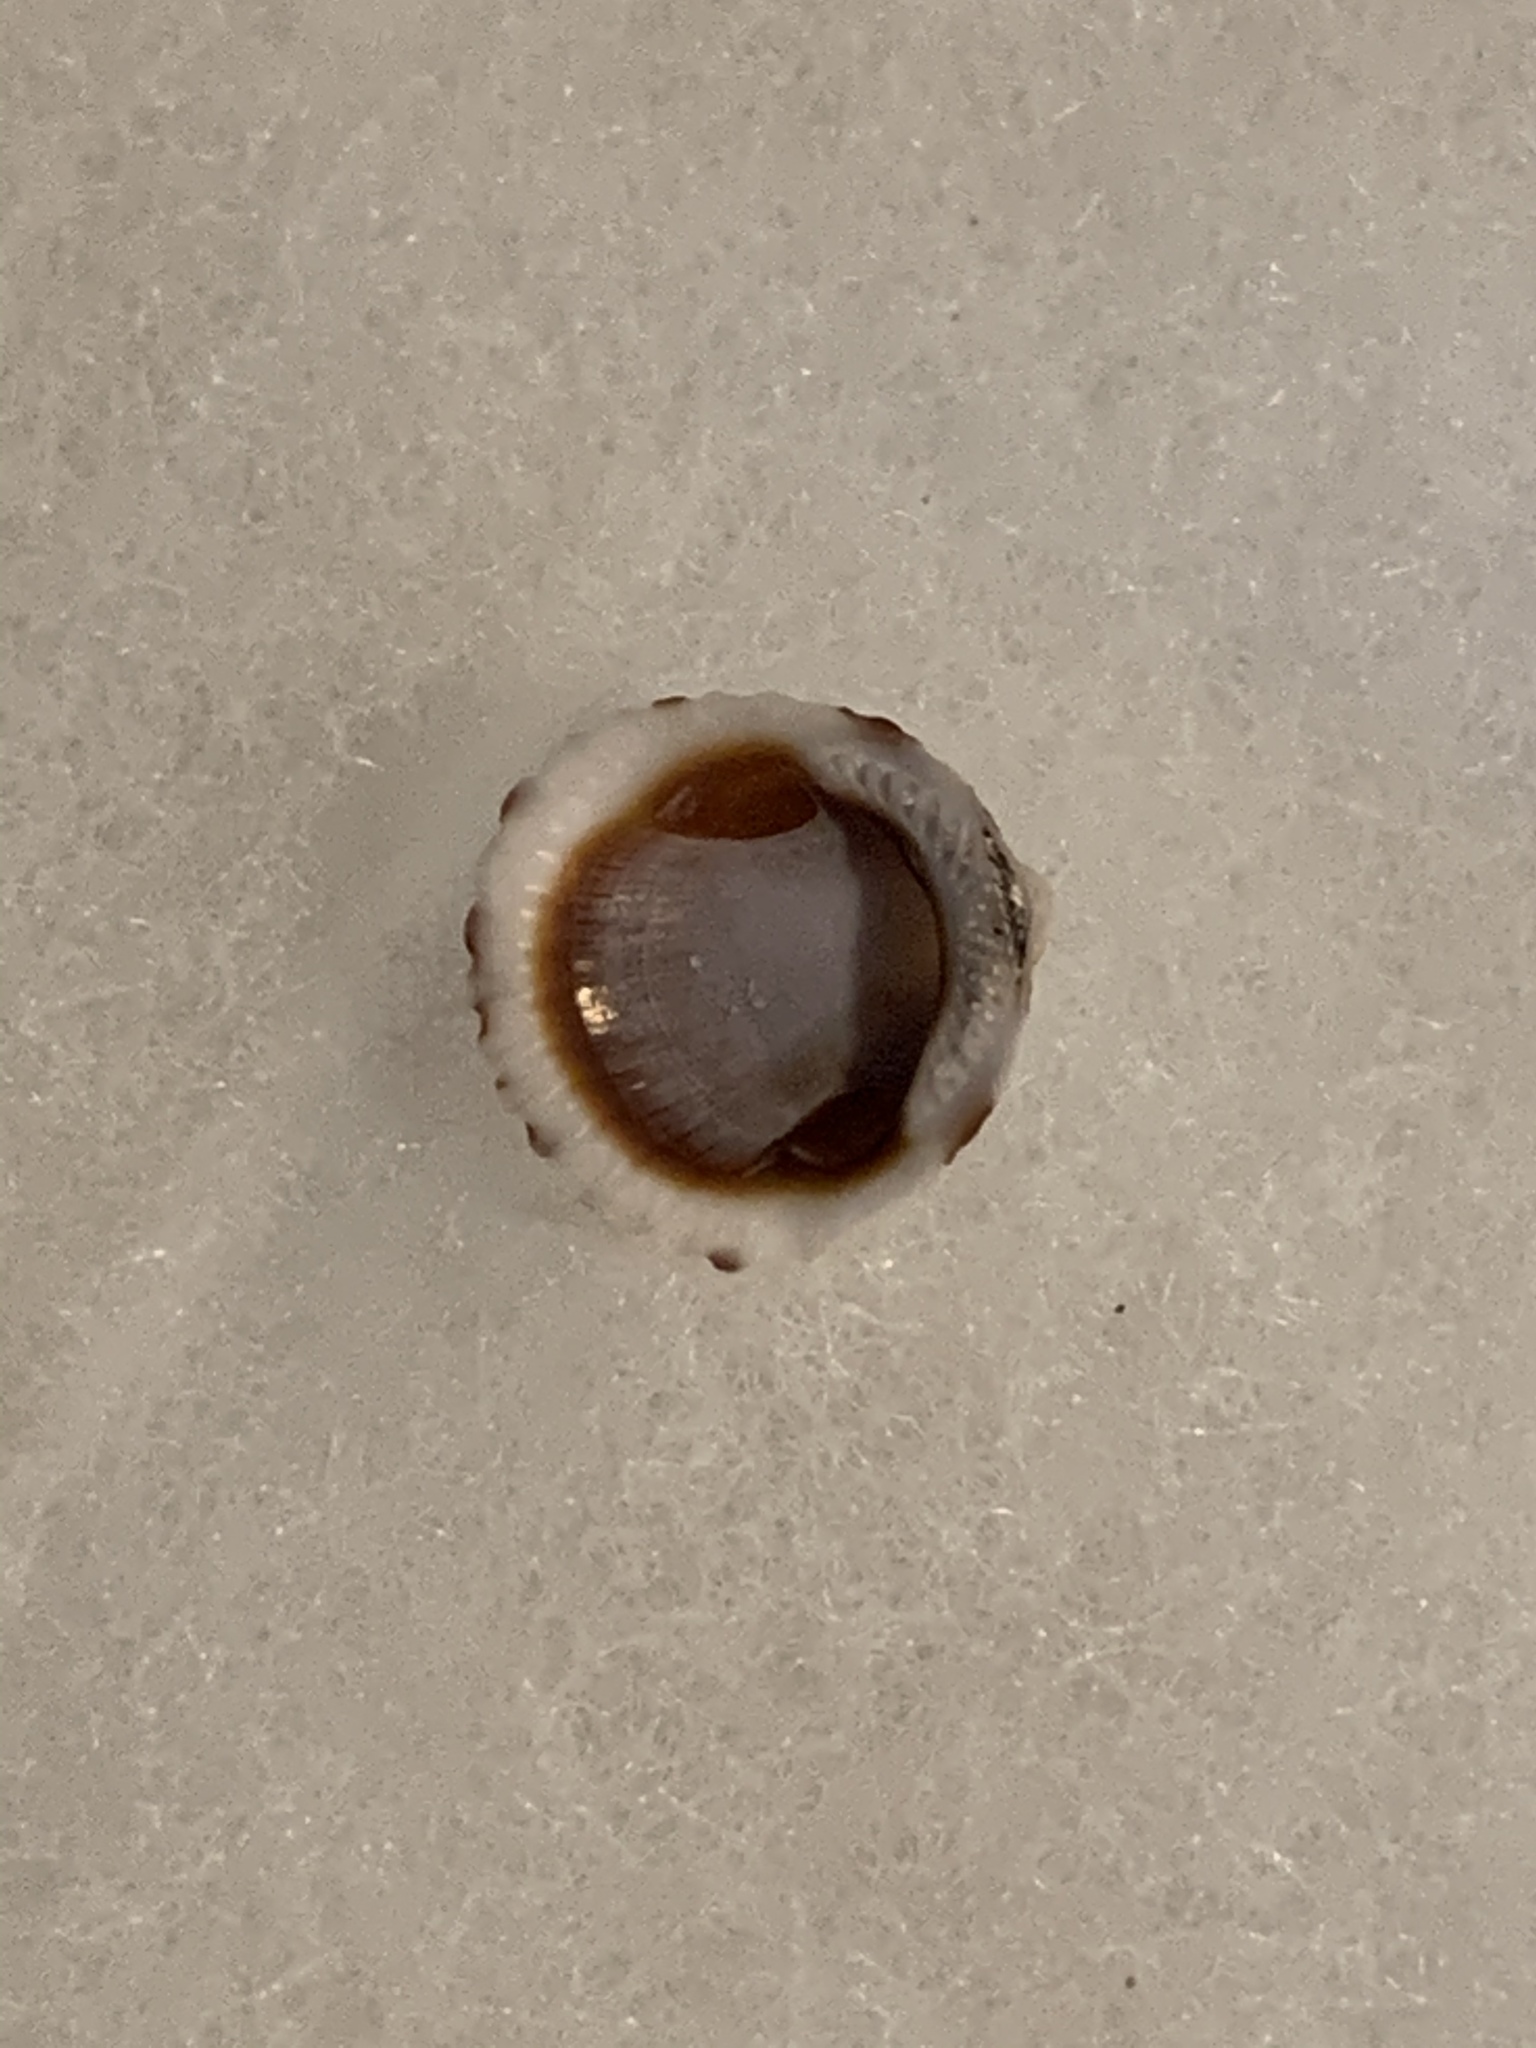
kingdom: Animalia
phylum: Mollusca
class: Bivalvia
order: Arcida
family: Glycymerididae
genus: Tucetona
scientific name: Tucetona pectinata
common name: Comb bittersweet
